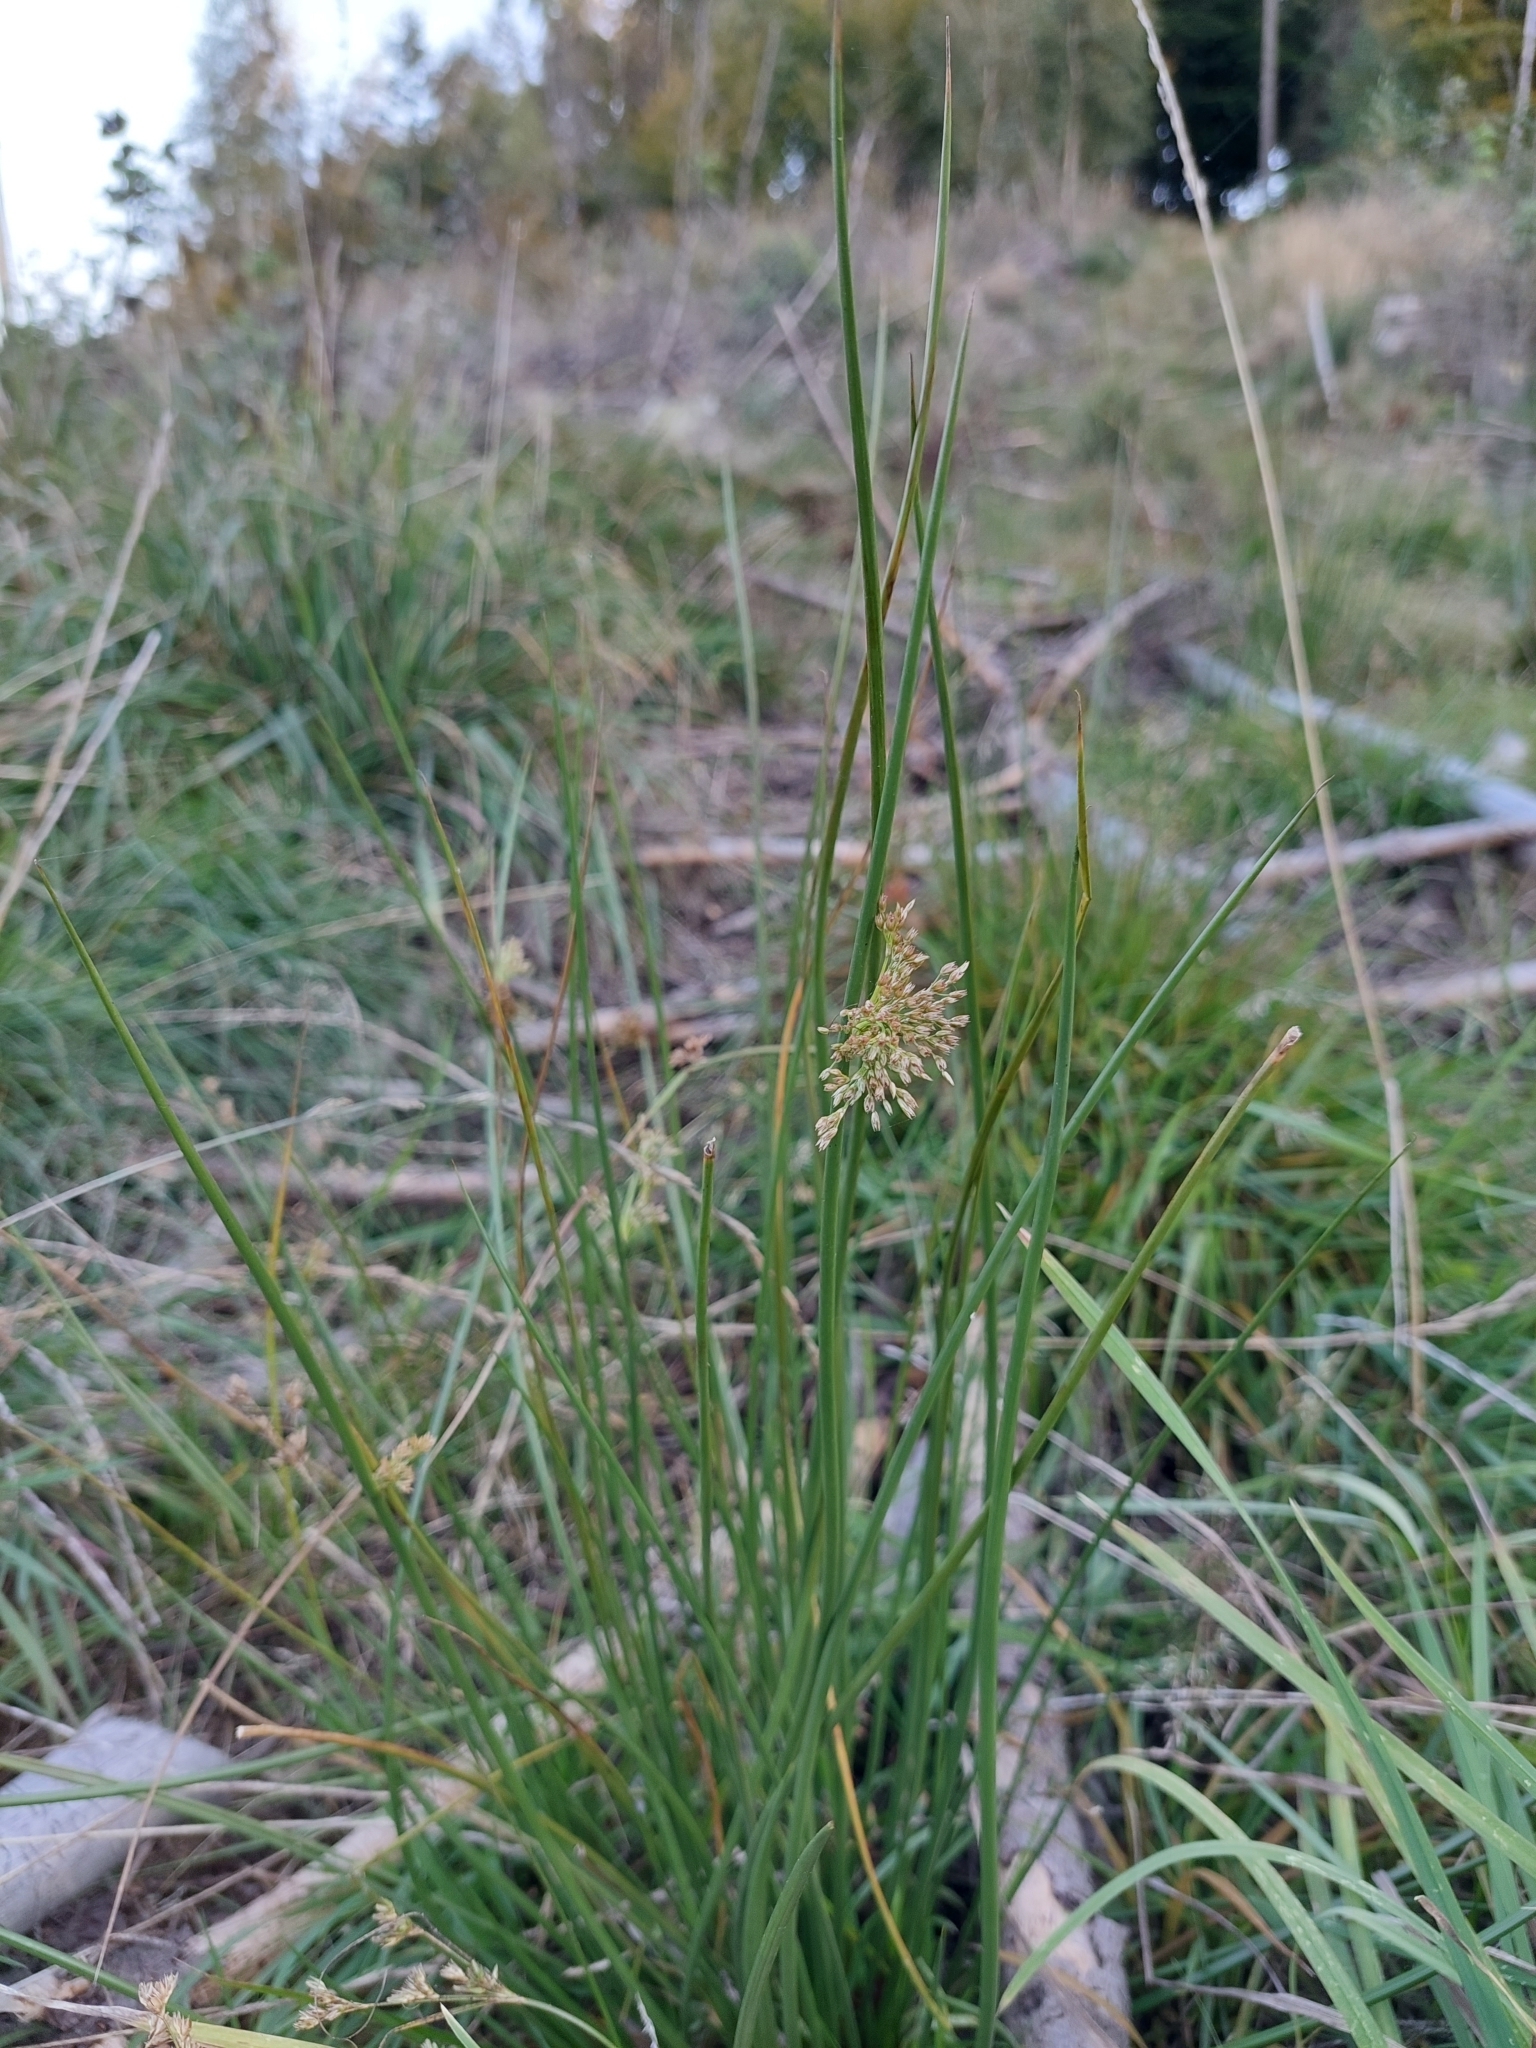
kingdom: Plantae
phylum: Tracheophyta
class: Liliopsida
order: Poales
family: Juncaceae
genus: Juncus
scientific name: Juncus effusus
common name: Soft rush
